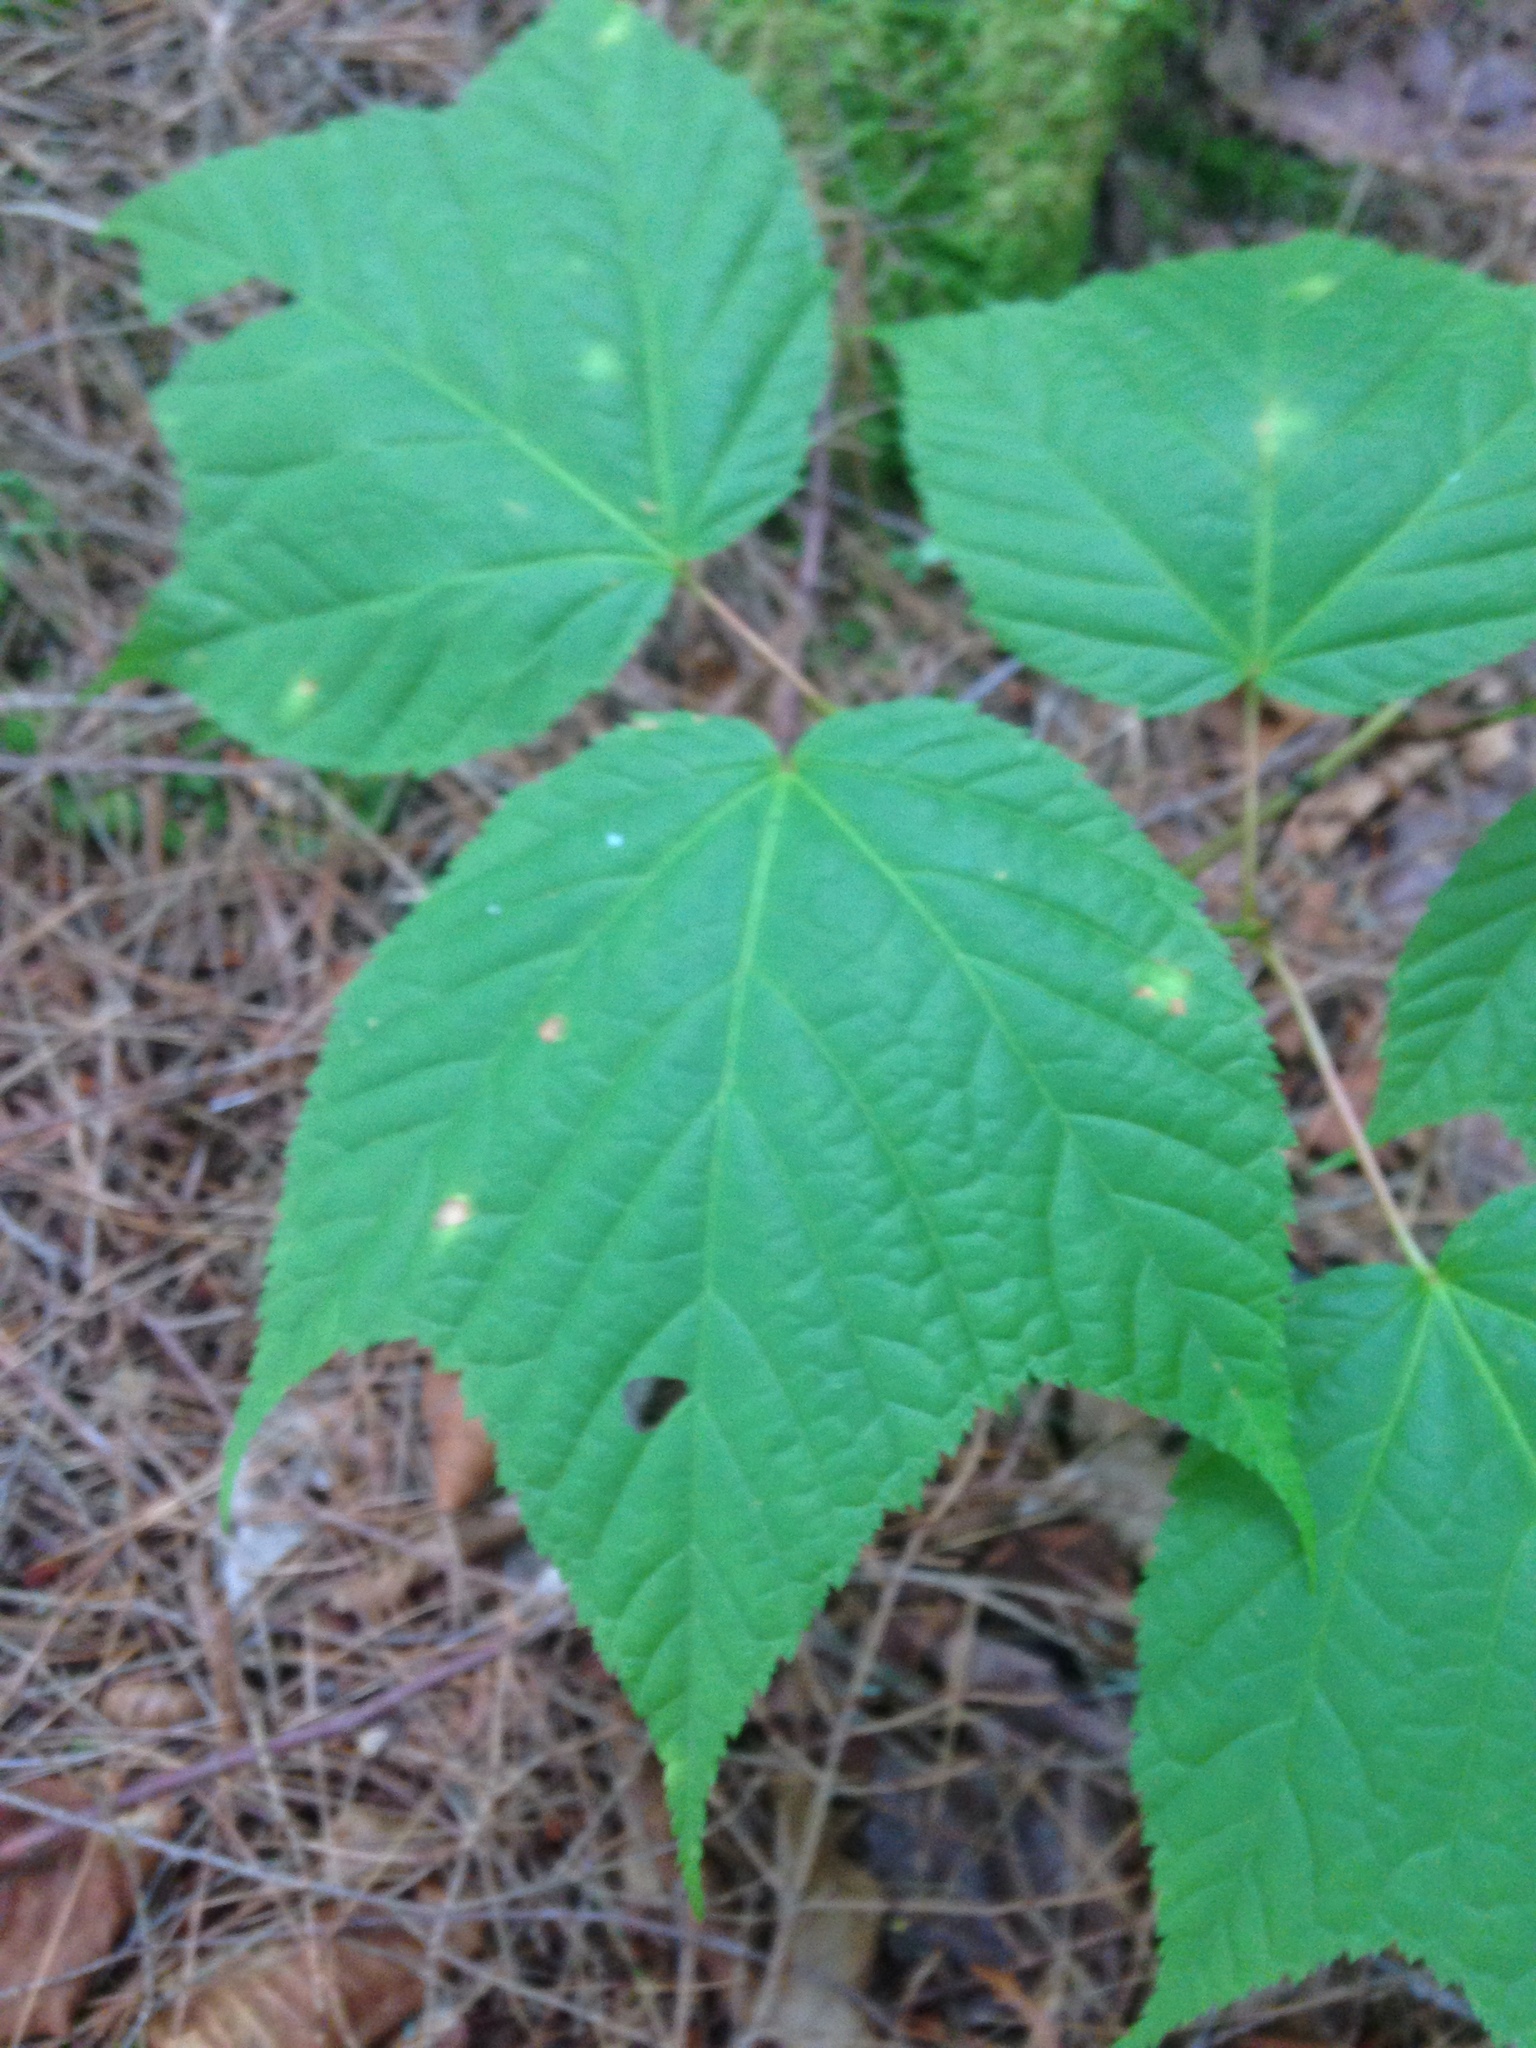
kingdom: Plantae
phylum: Tracheophyta
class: Magnoliopsida
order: Sapindales
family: Sapindaceae
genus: Acer
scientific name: Acer pensylvanicum
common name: Moosewood
